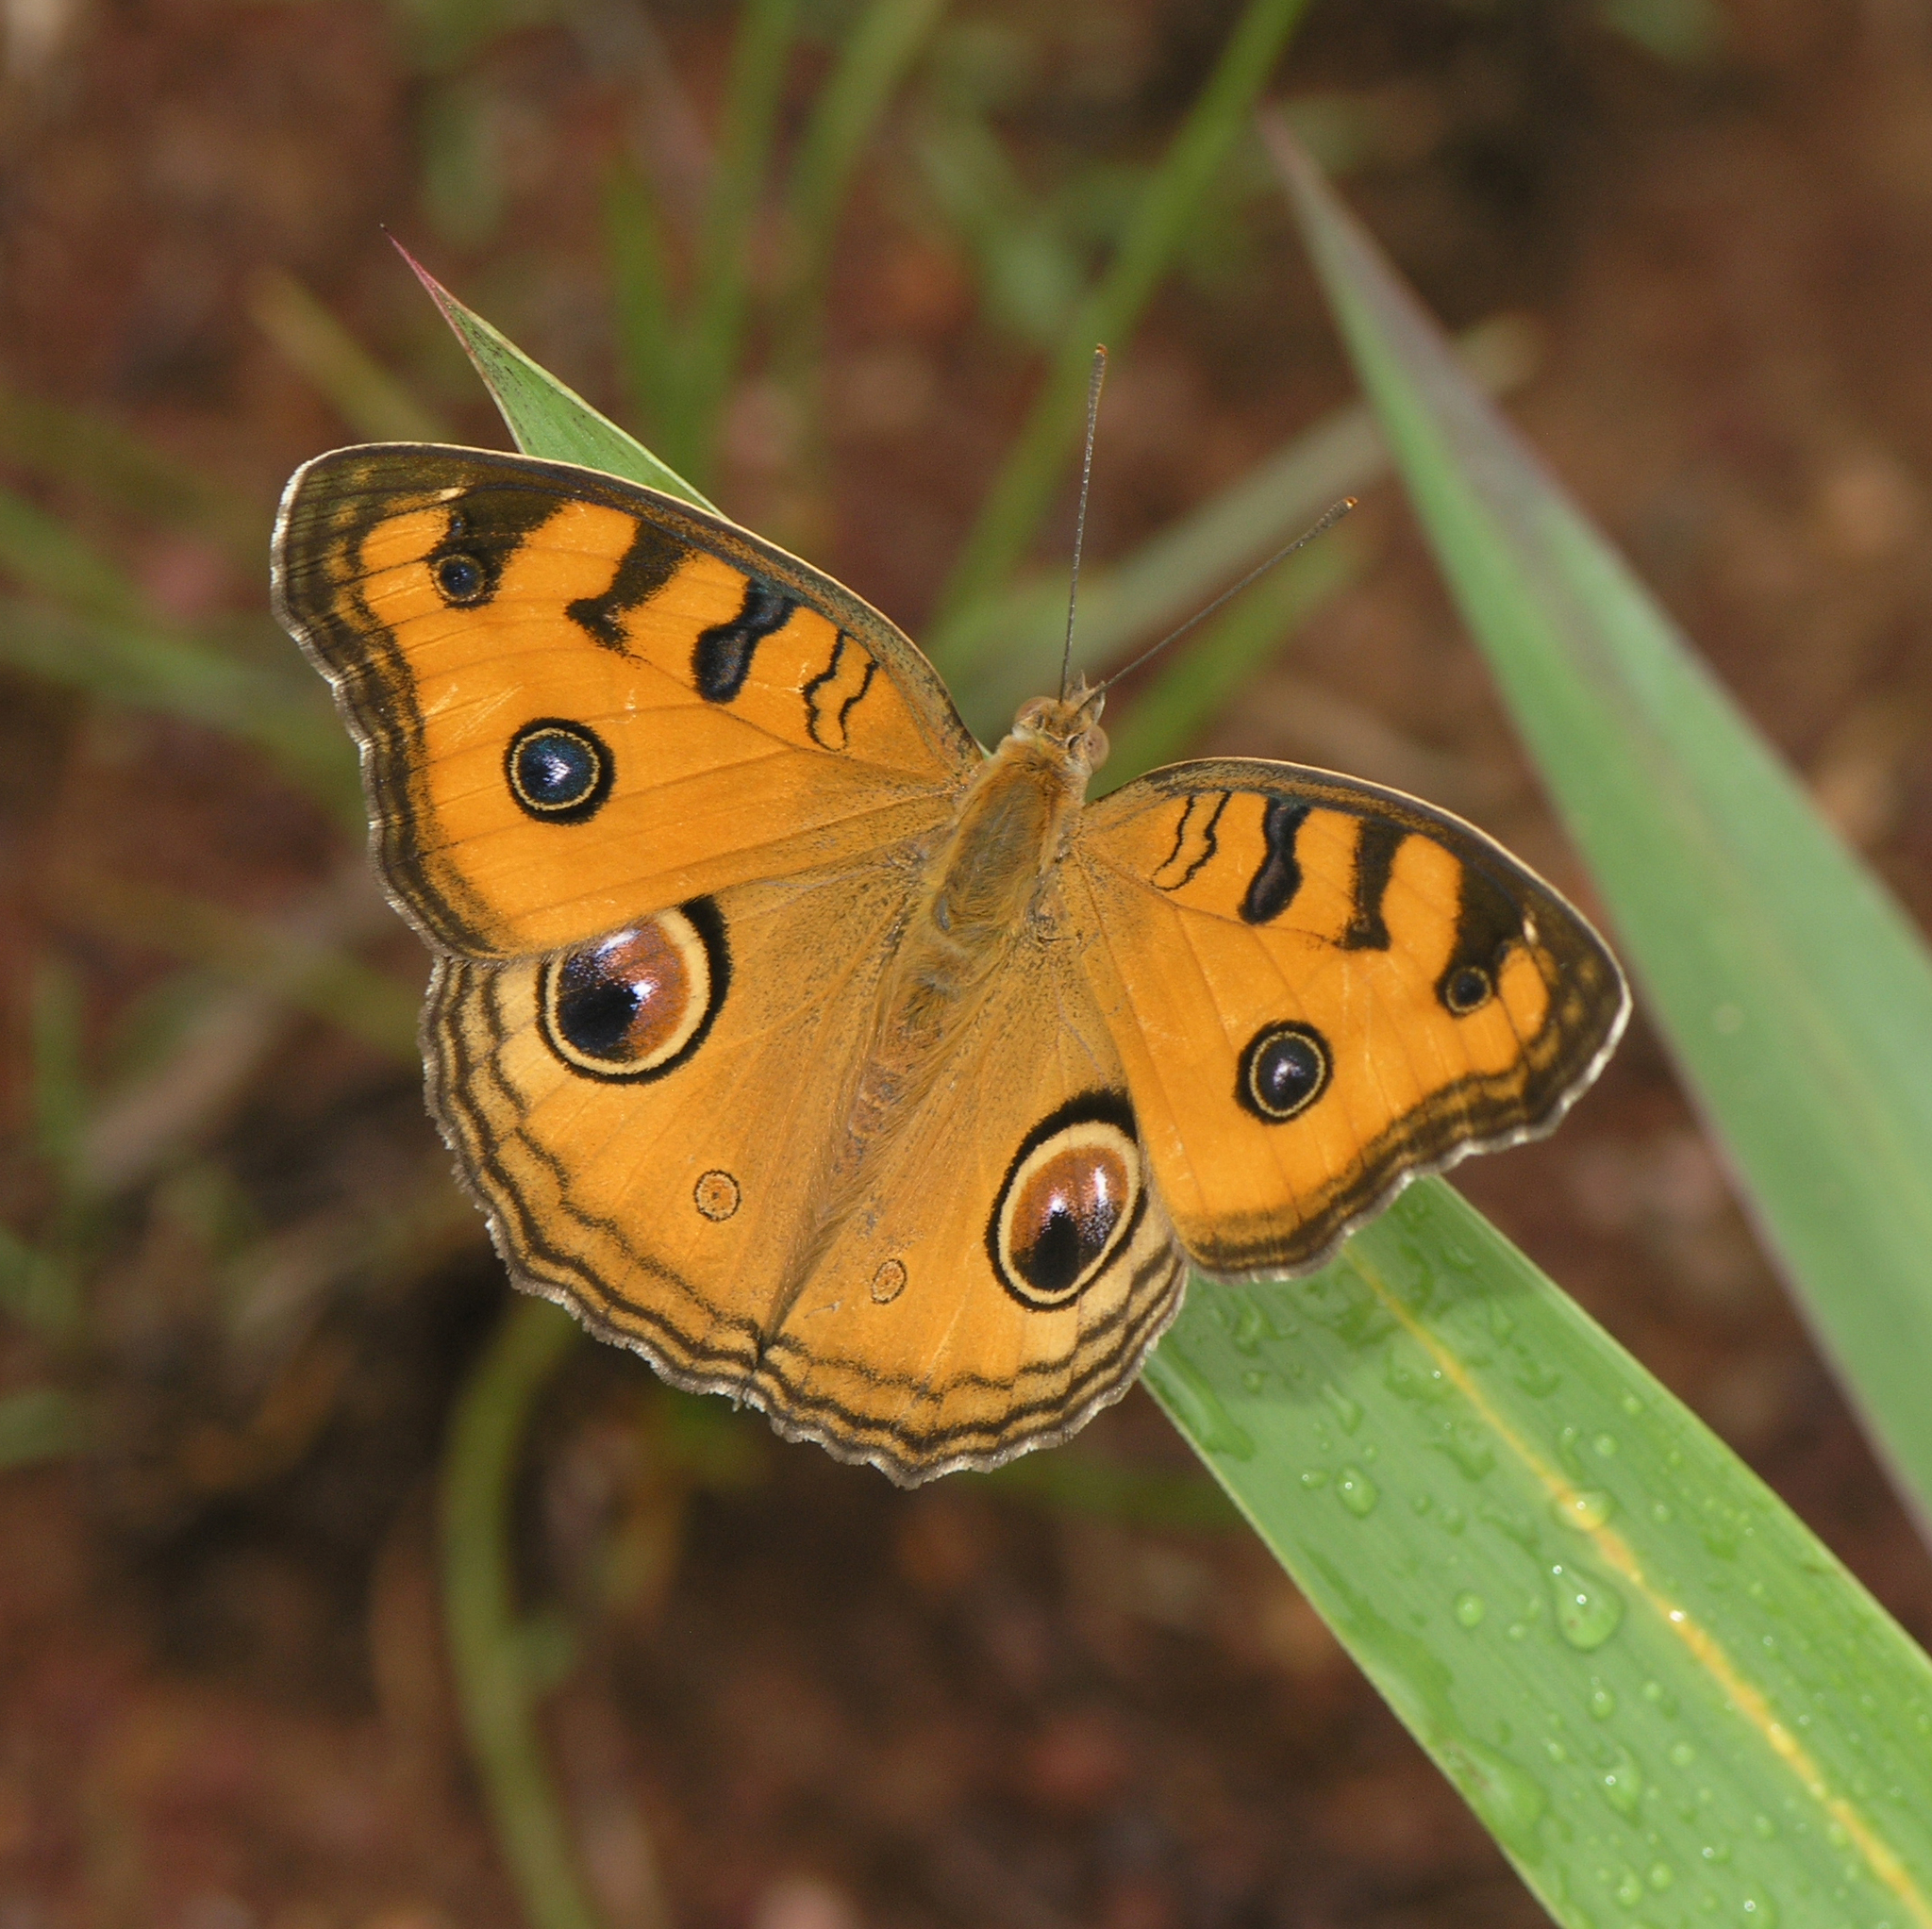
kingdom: Animalia
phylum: Arthropoda
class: Insecta
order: Lepidoptera
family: Nymphalidae
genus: Junonia
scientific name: Junonia almana
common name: Peacock pansy
